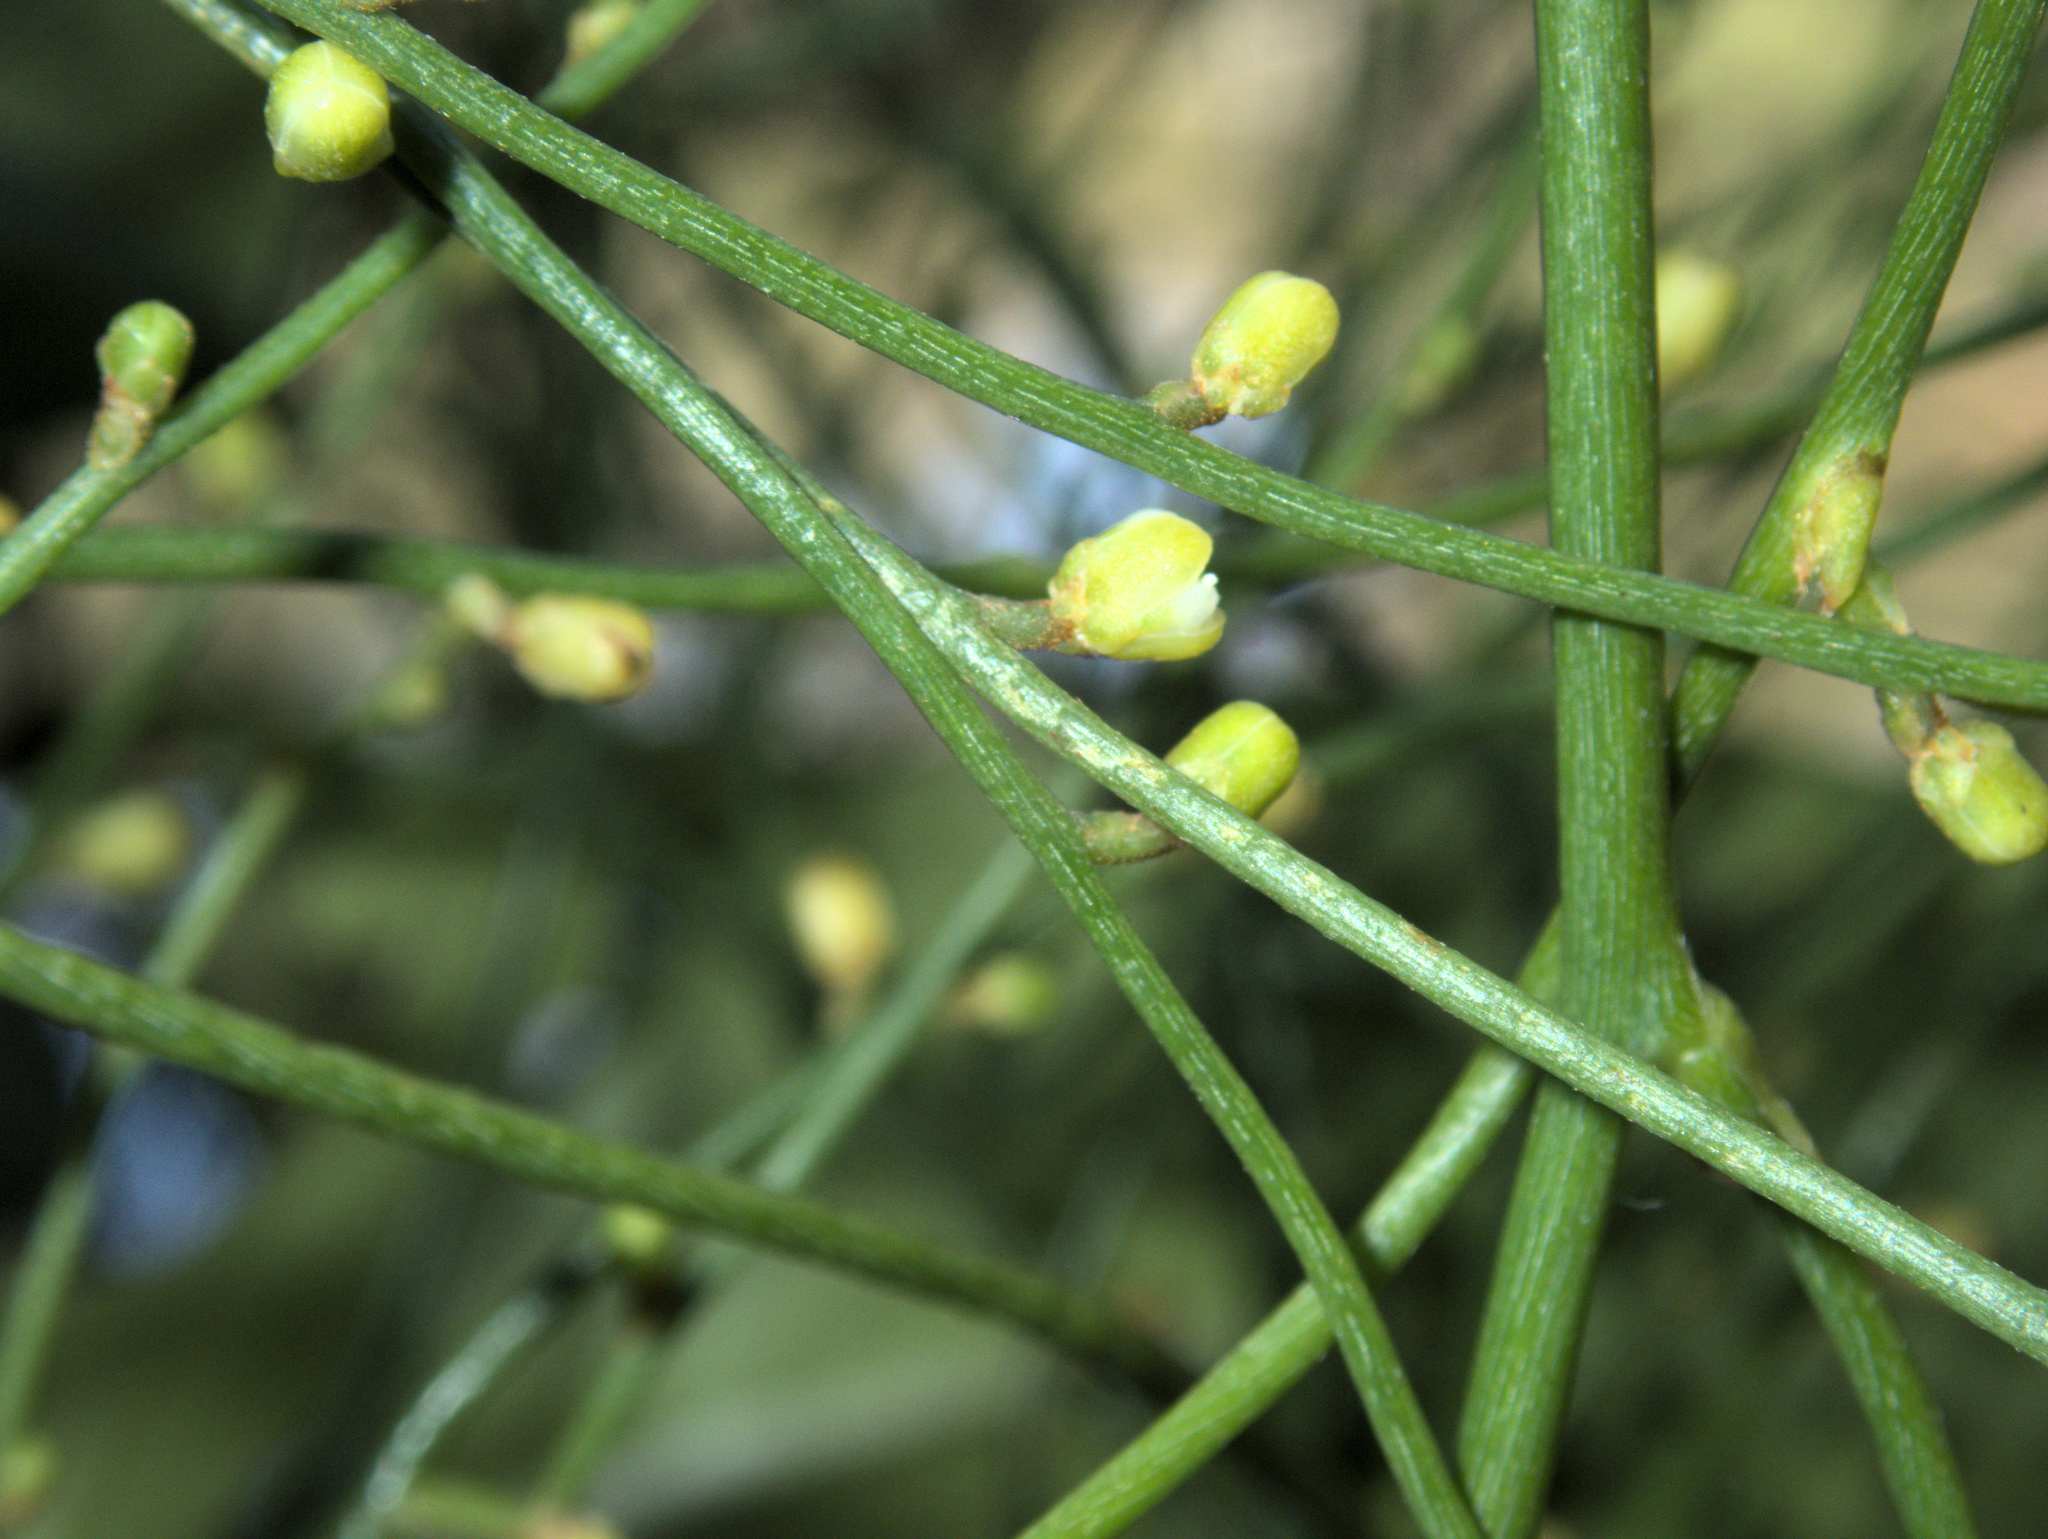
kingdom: Plantae
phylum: Tracheophyta
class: Magnoliopsida
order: Laurales
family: Lauraceae
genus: Cassytha
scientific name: Cassytha paniculata
